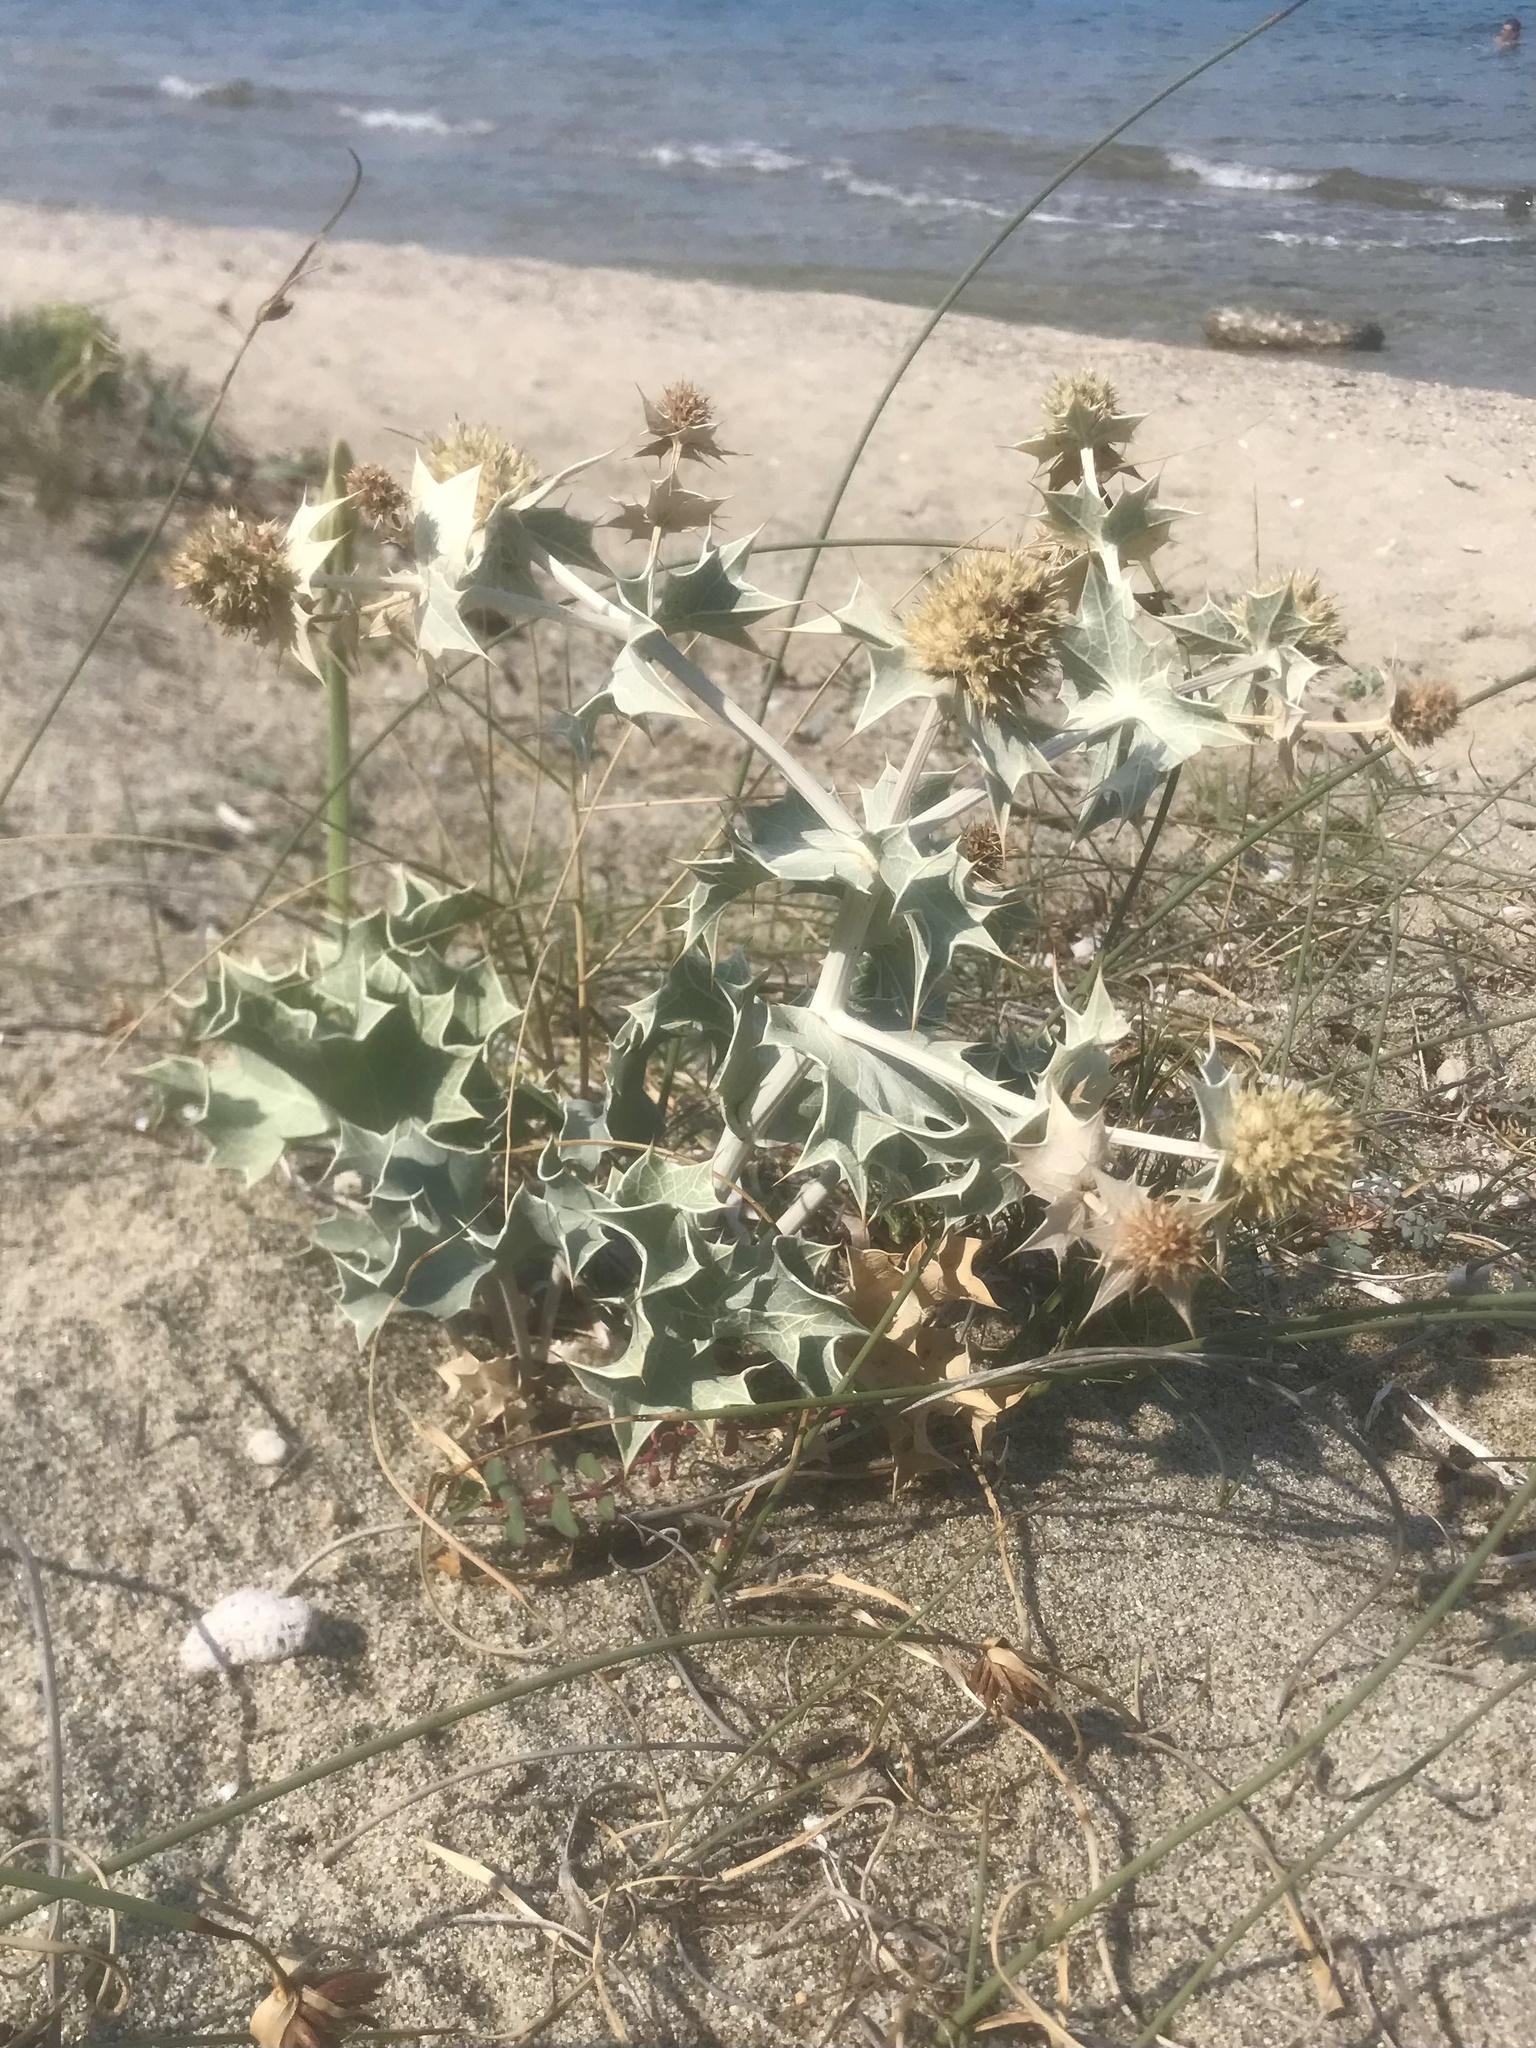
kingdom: Plantae
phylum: Tracheophyta
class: Magnoliopsida
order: Apiales
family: Apiaceae
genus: Eryngium
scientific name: Eryngium maritimum
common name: Sea-holly
